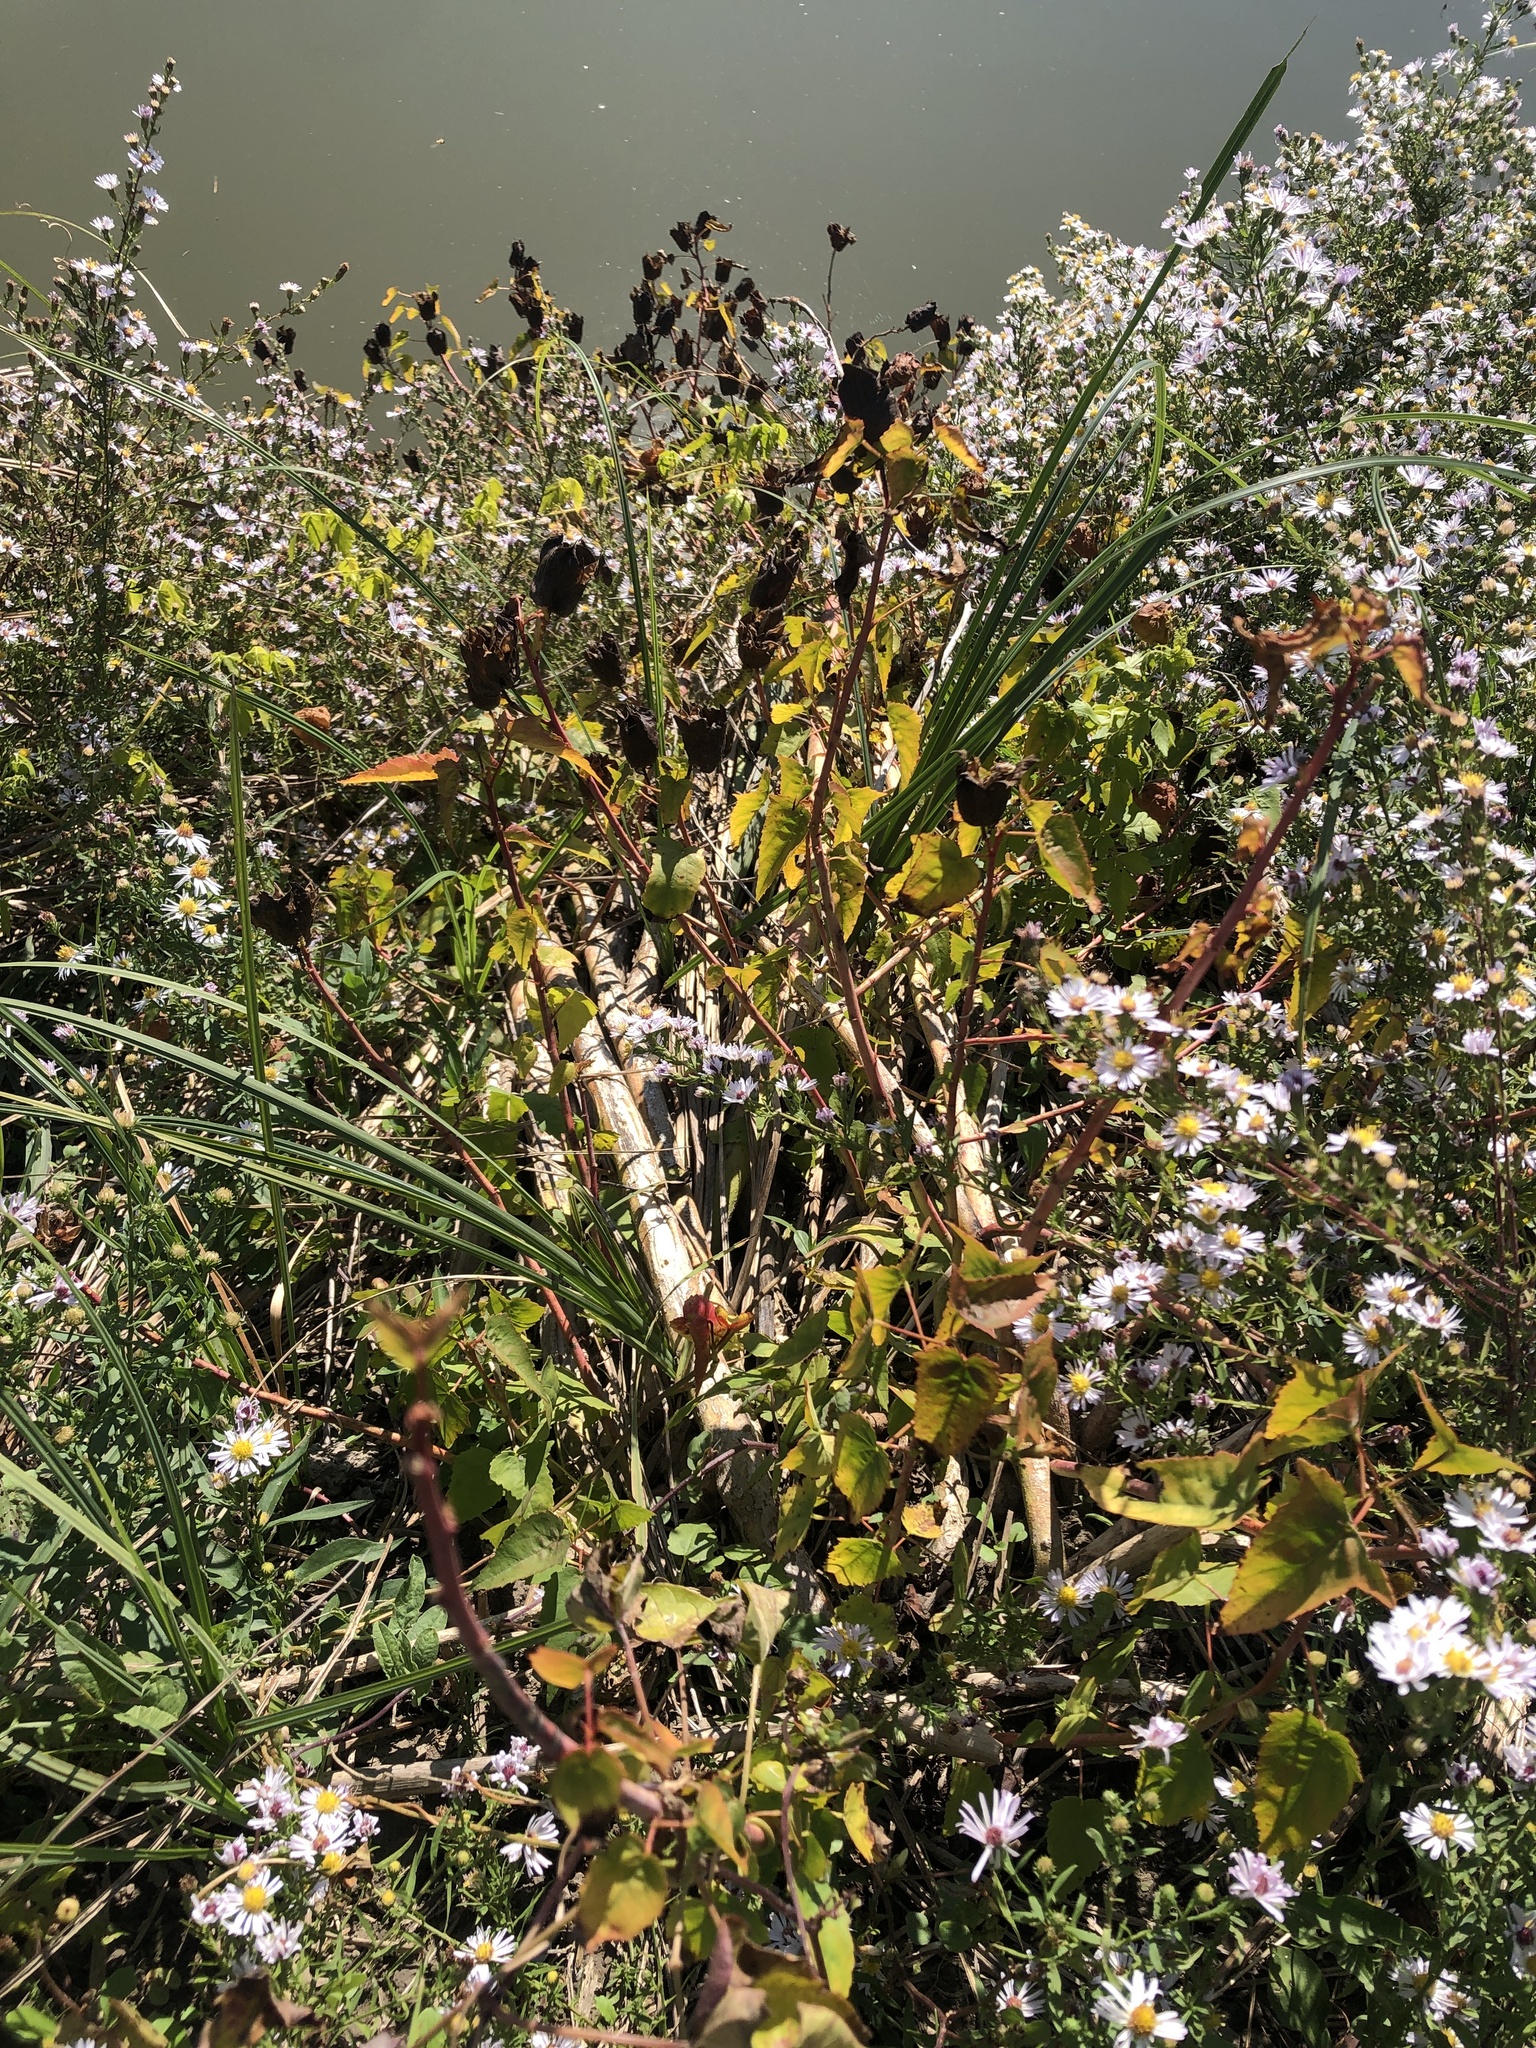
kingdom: Plantae
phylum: Tracheophyta
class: Magnoliopsida
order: Malvales
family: Malvaceae
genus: Hibiscus
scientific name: Hibiscus laevis
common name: Scarlet rose-mallow
